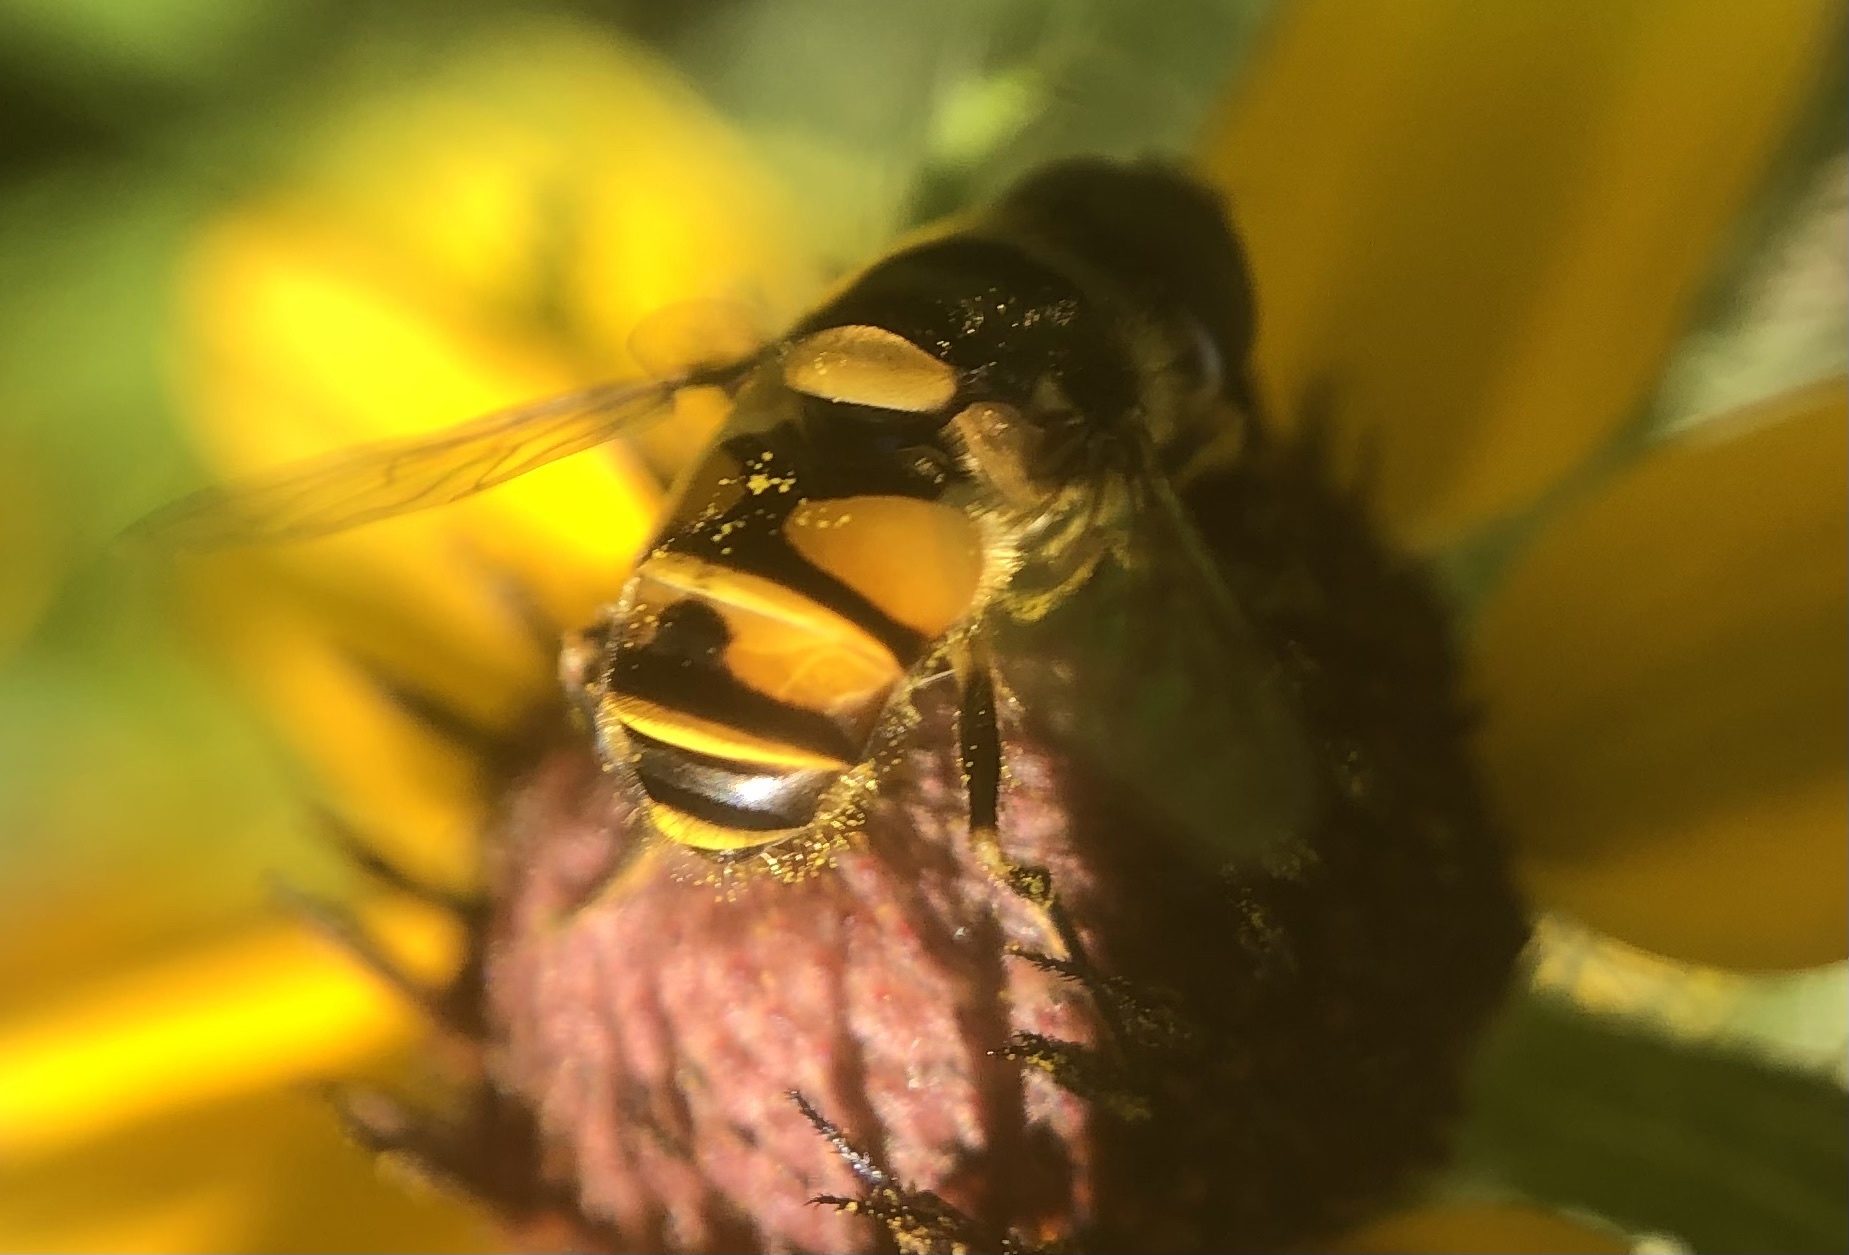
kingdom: Animalia
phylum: Arthropoda
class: Insecta
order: Diptera
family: Syrphidae
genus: Eristalis
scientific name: Eristalis transversa
